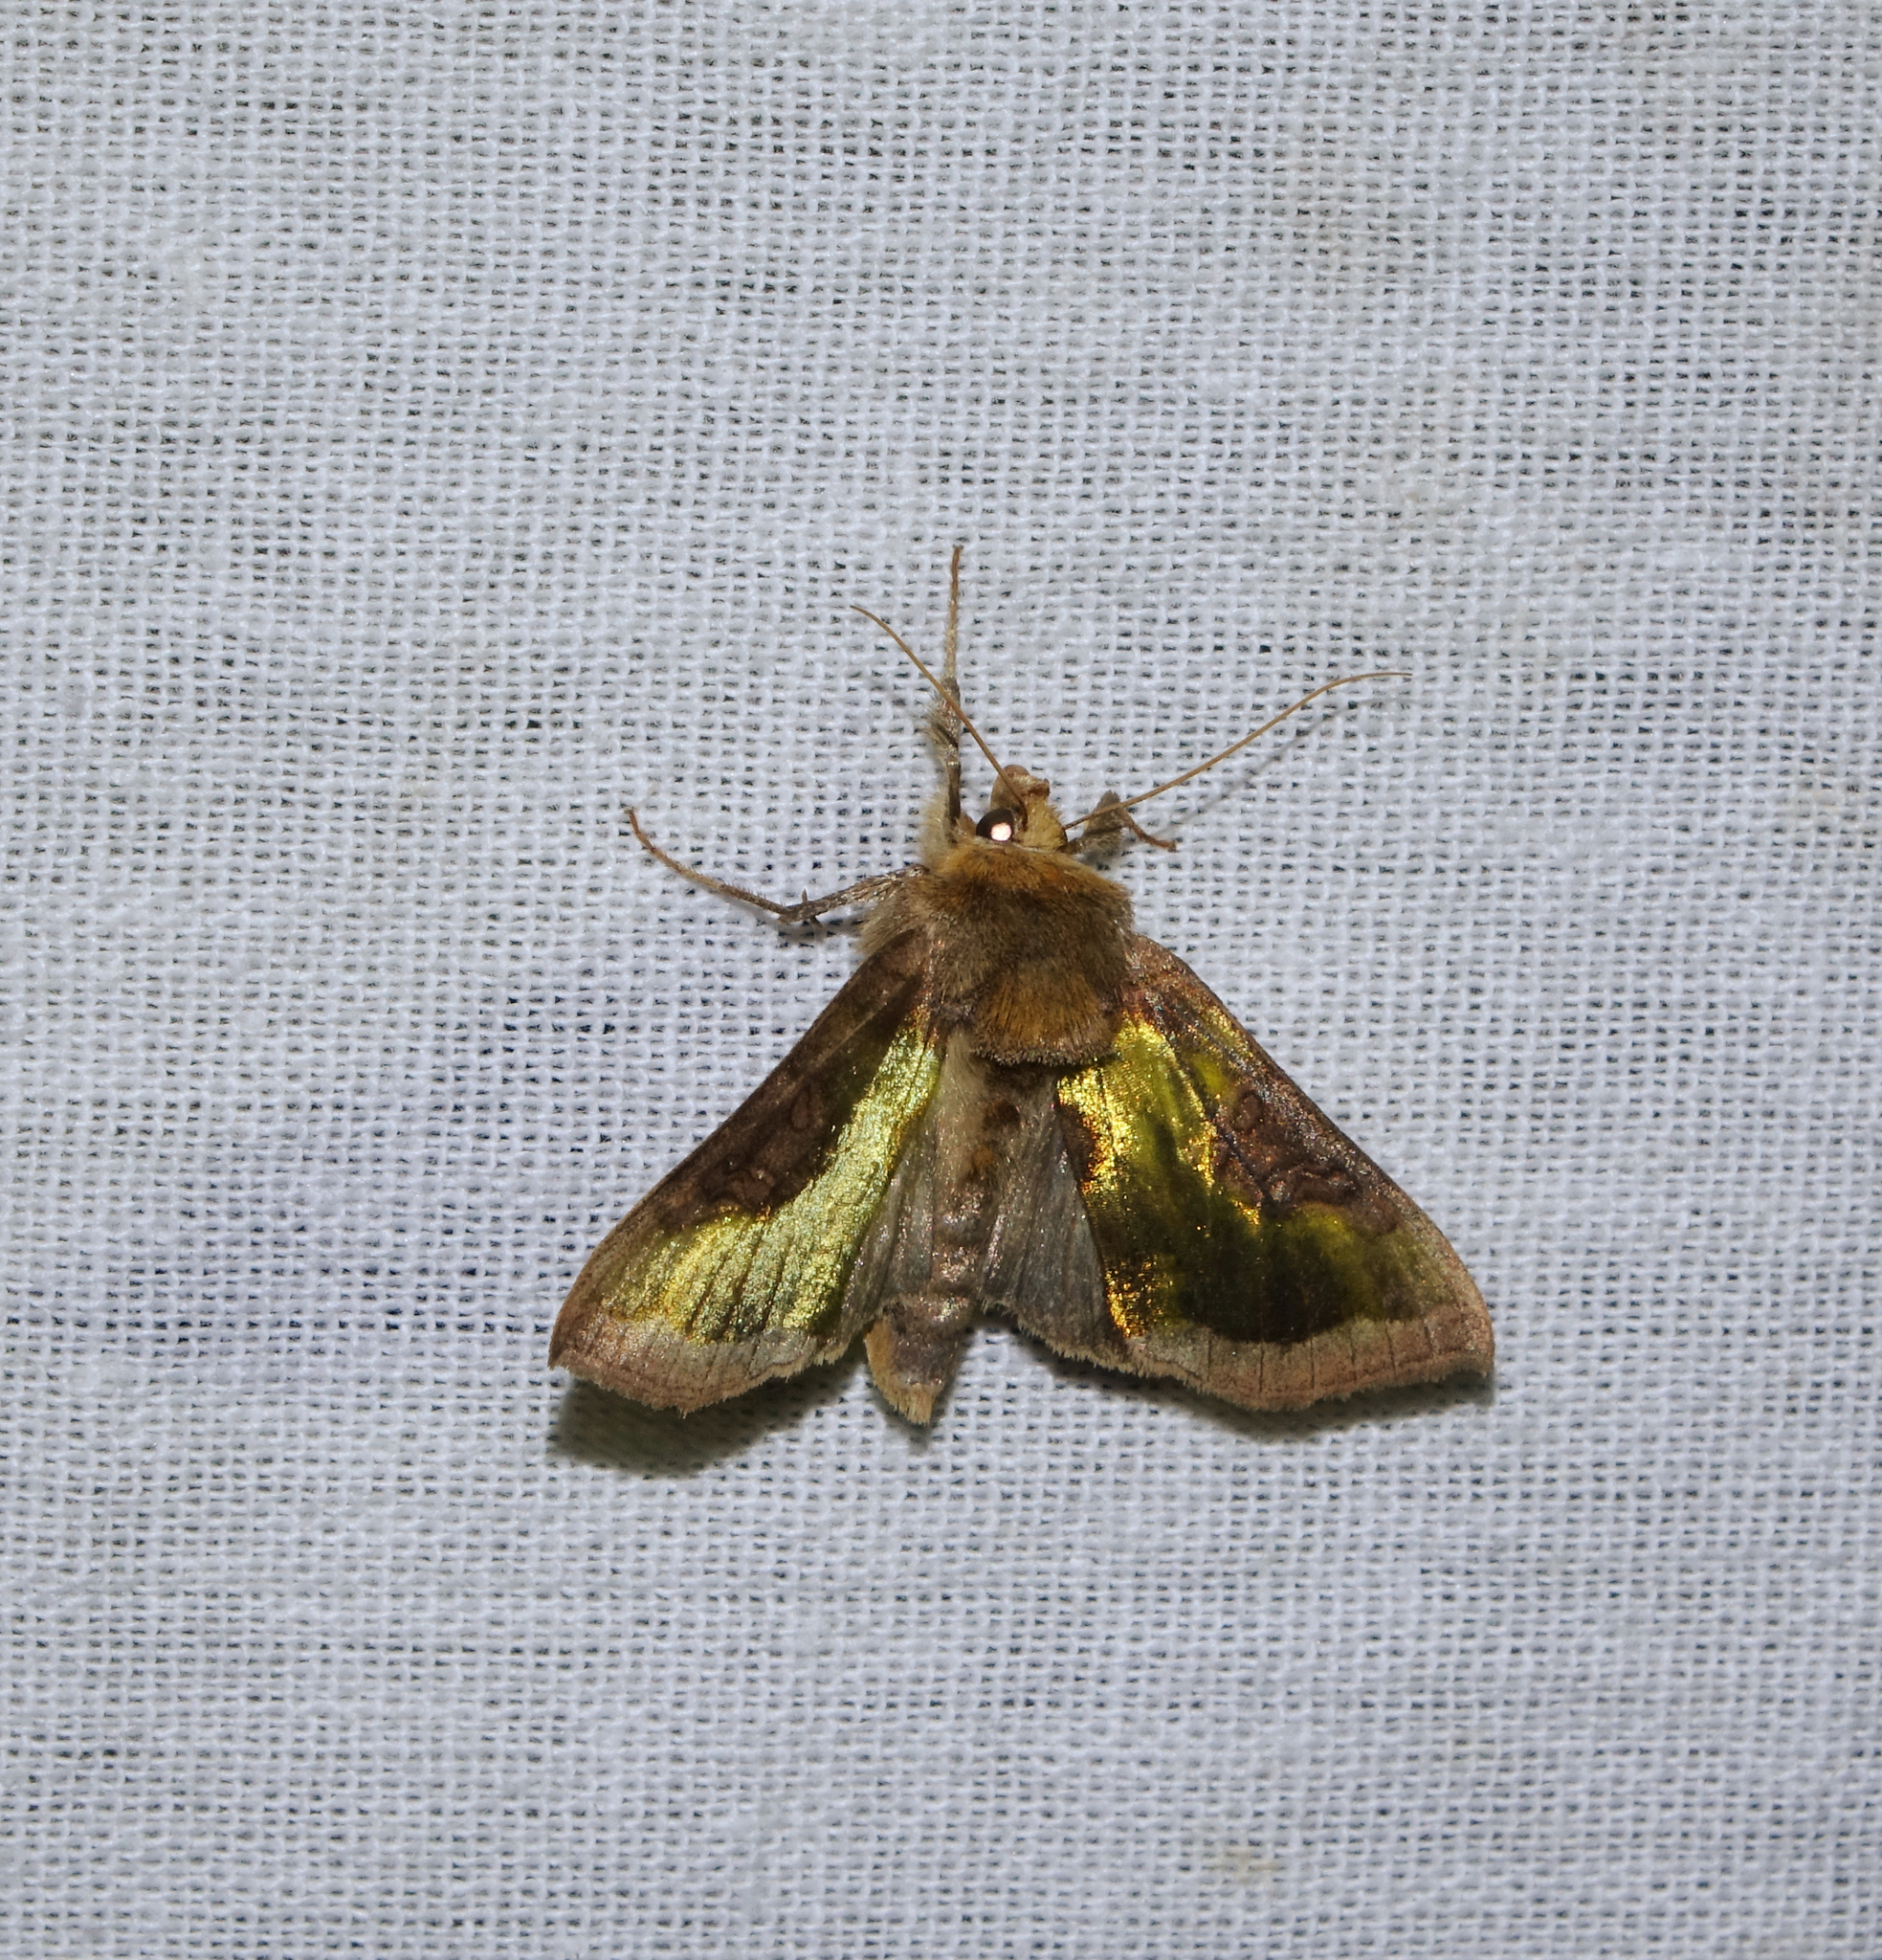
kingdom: Animalia
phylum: Arthropoda
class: Insecta
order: Lepidoptera
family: Noctuidae
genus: Diachrysia
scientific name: Diachrysia stenochrysis
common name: Cryptic burnished brass
